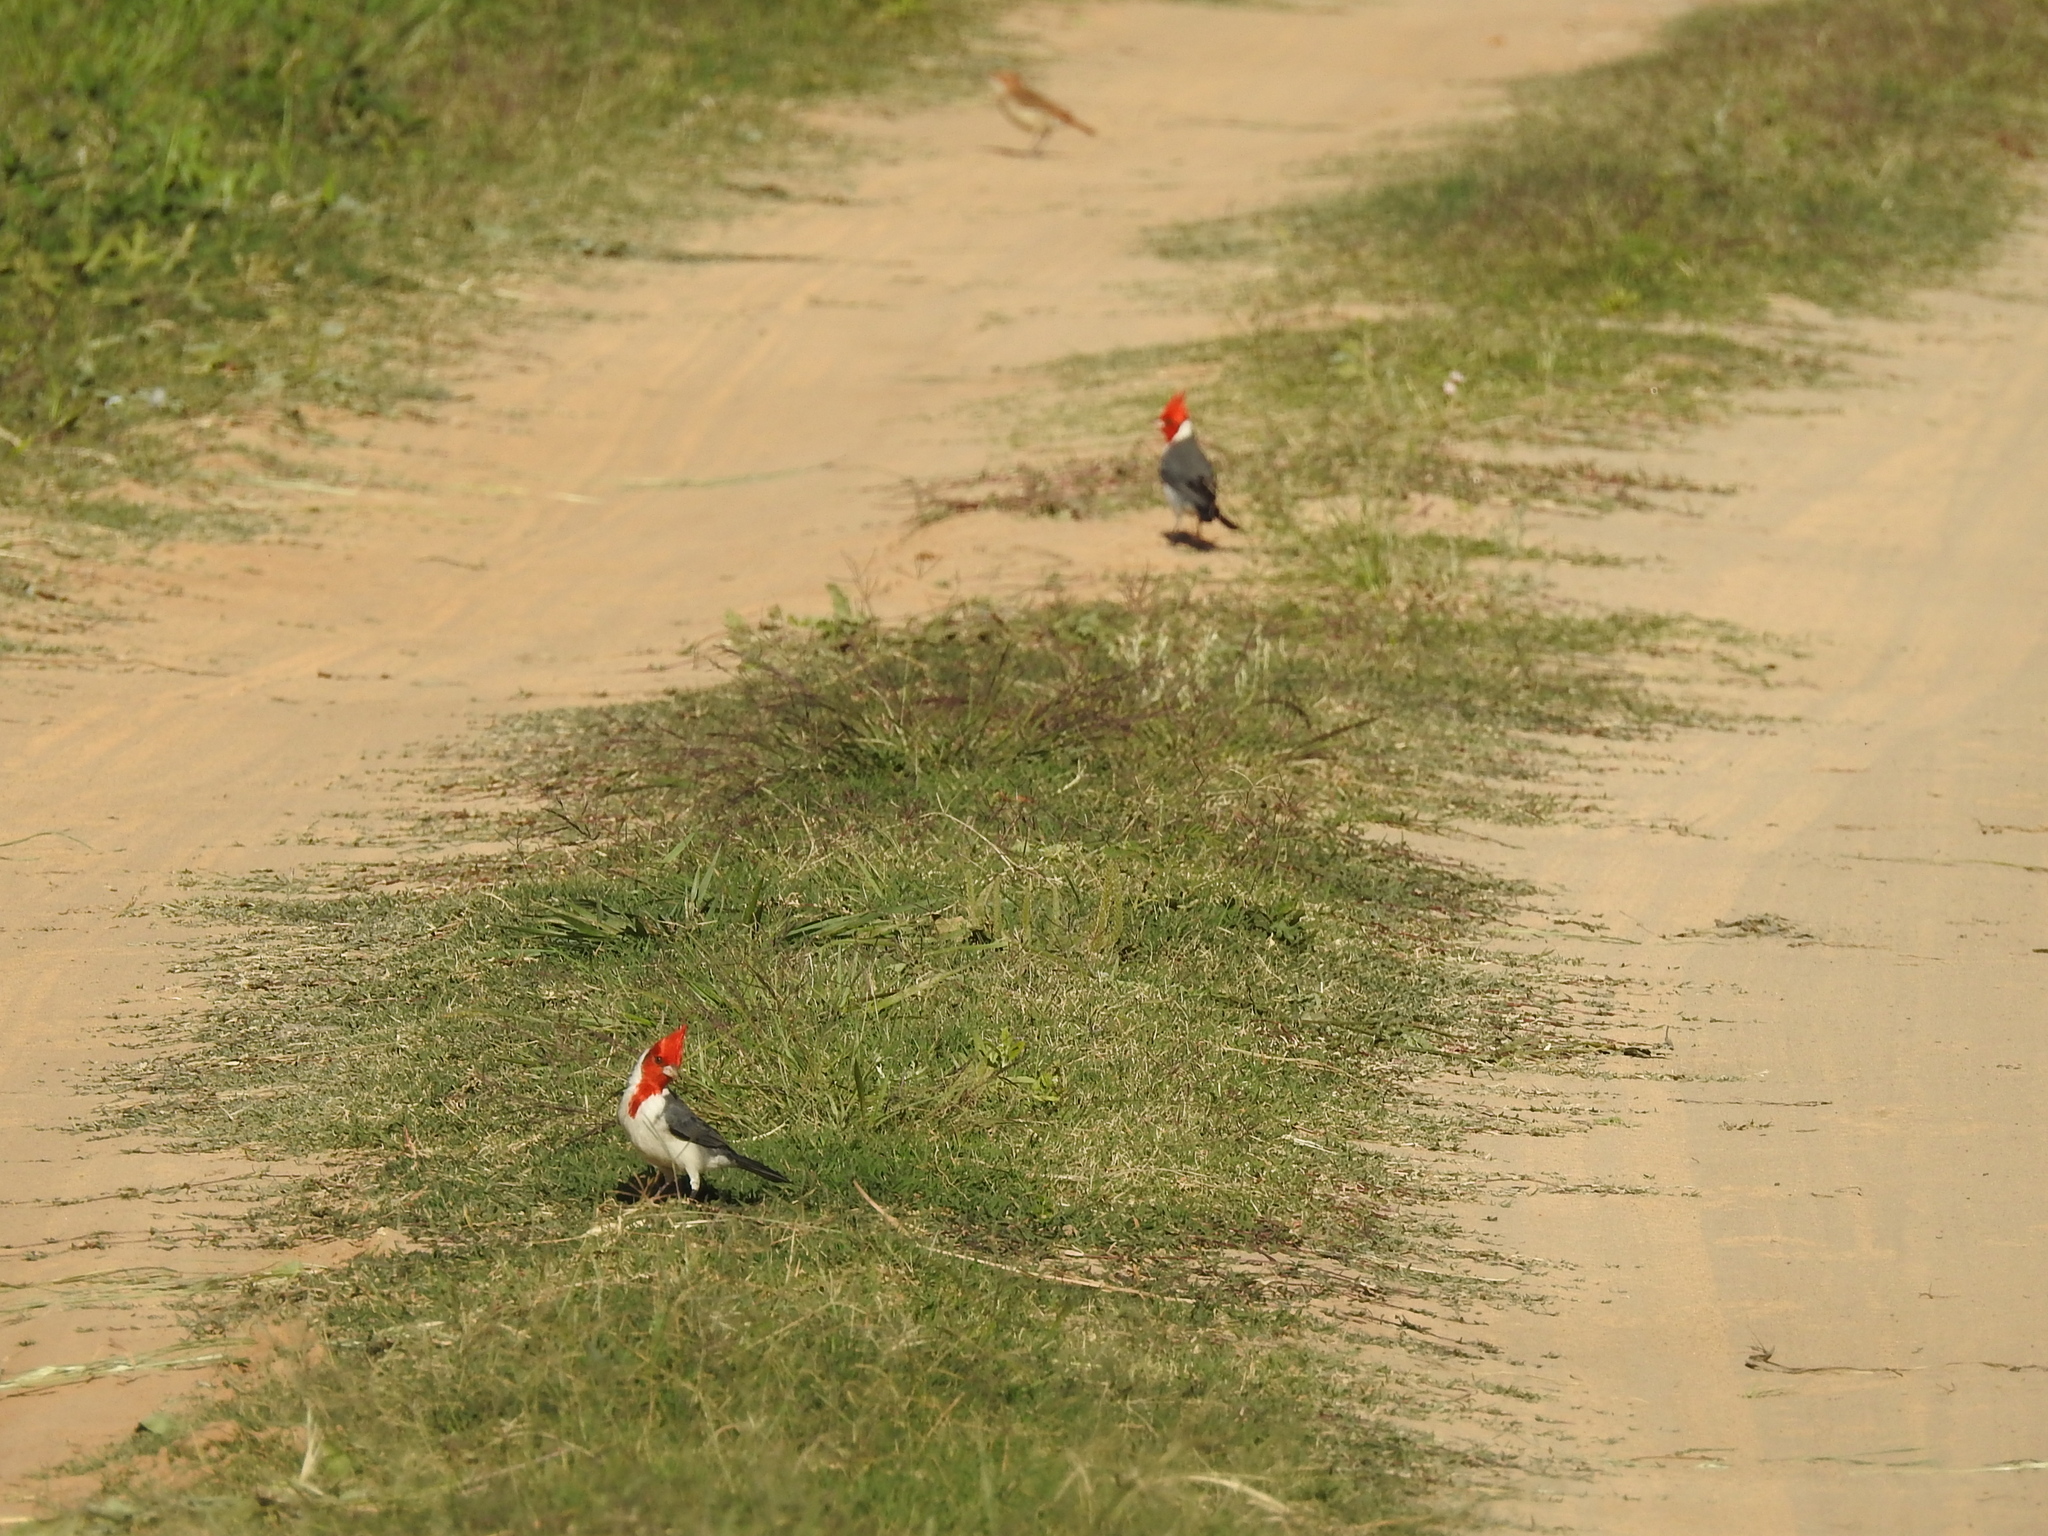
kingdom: Animalia
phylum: Chordata
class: Aves
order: Passeriformes
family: Thraupidae
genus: Paroaria
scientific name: Paroaria coronata
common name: Red-crested cardinal
